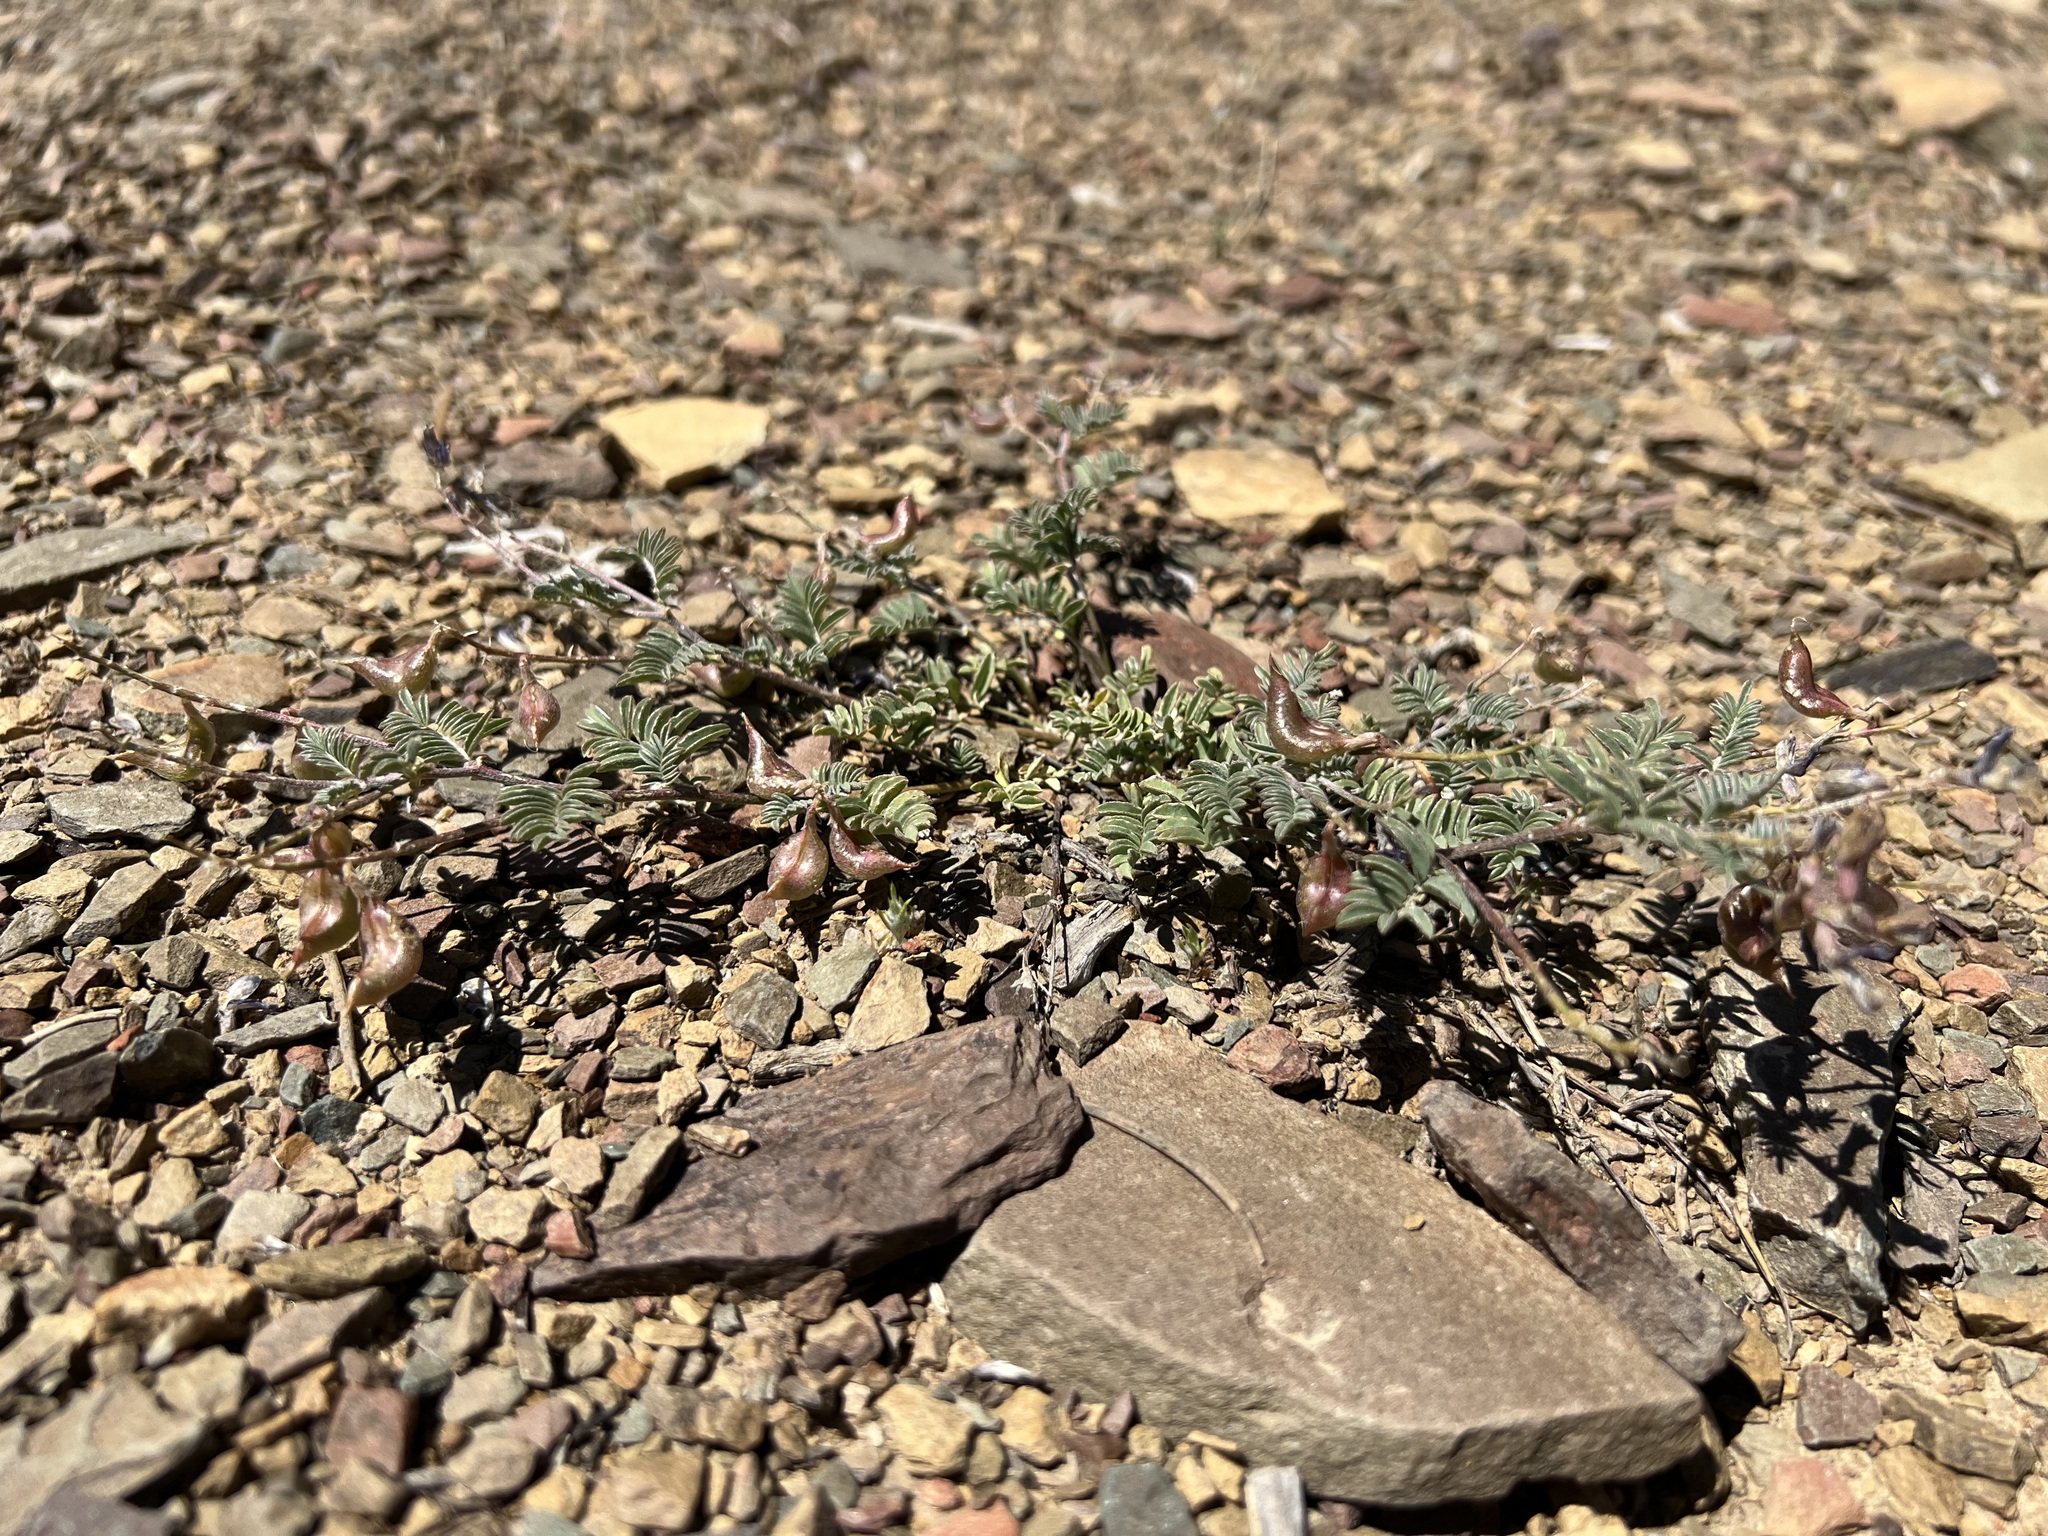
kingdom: Plantae
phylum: Tracheophyta
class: Magnoliopsida
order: Fabales
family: Fabaceae
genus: Astragalus
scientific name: Astragalus inyoensis
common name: Inyo locoweed
